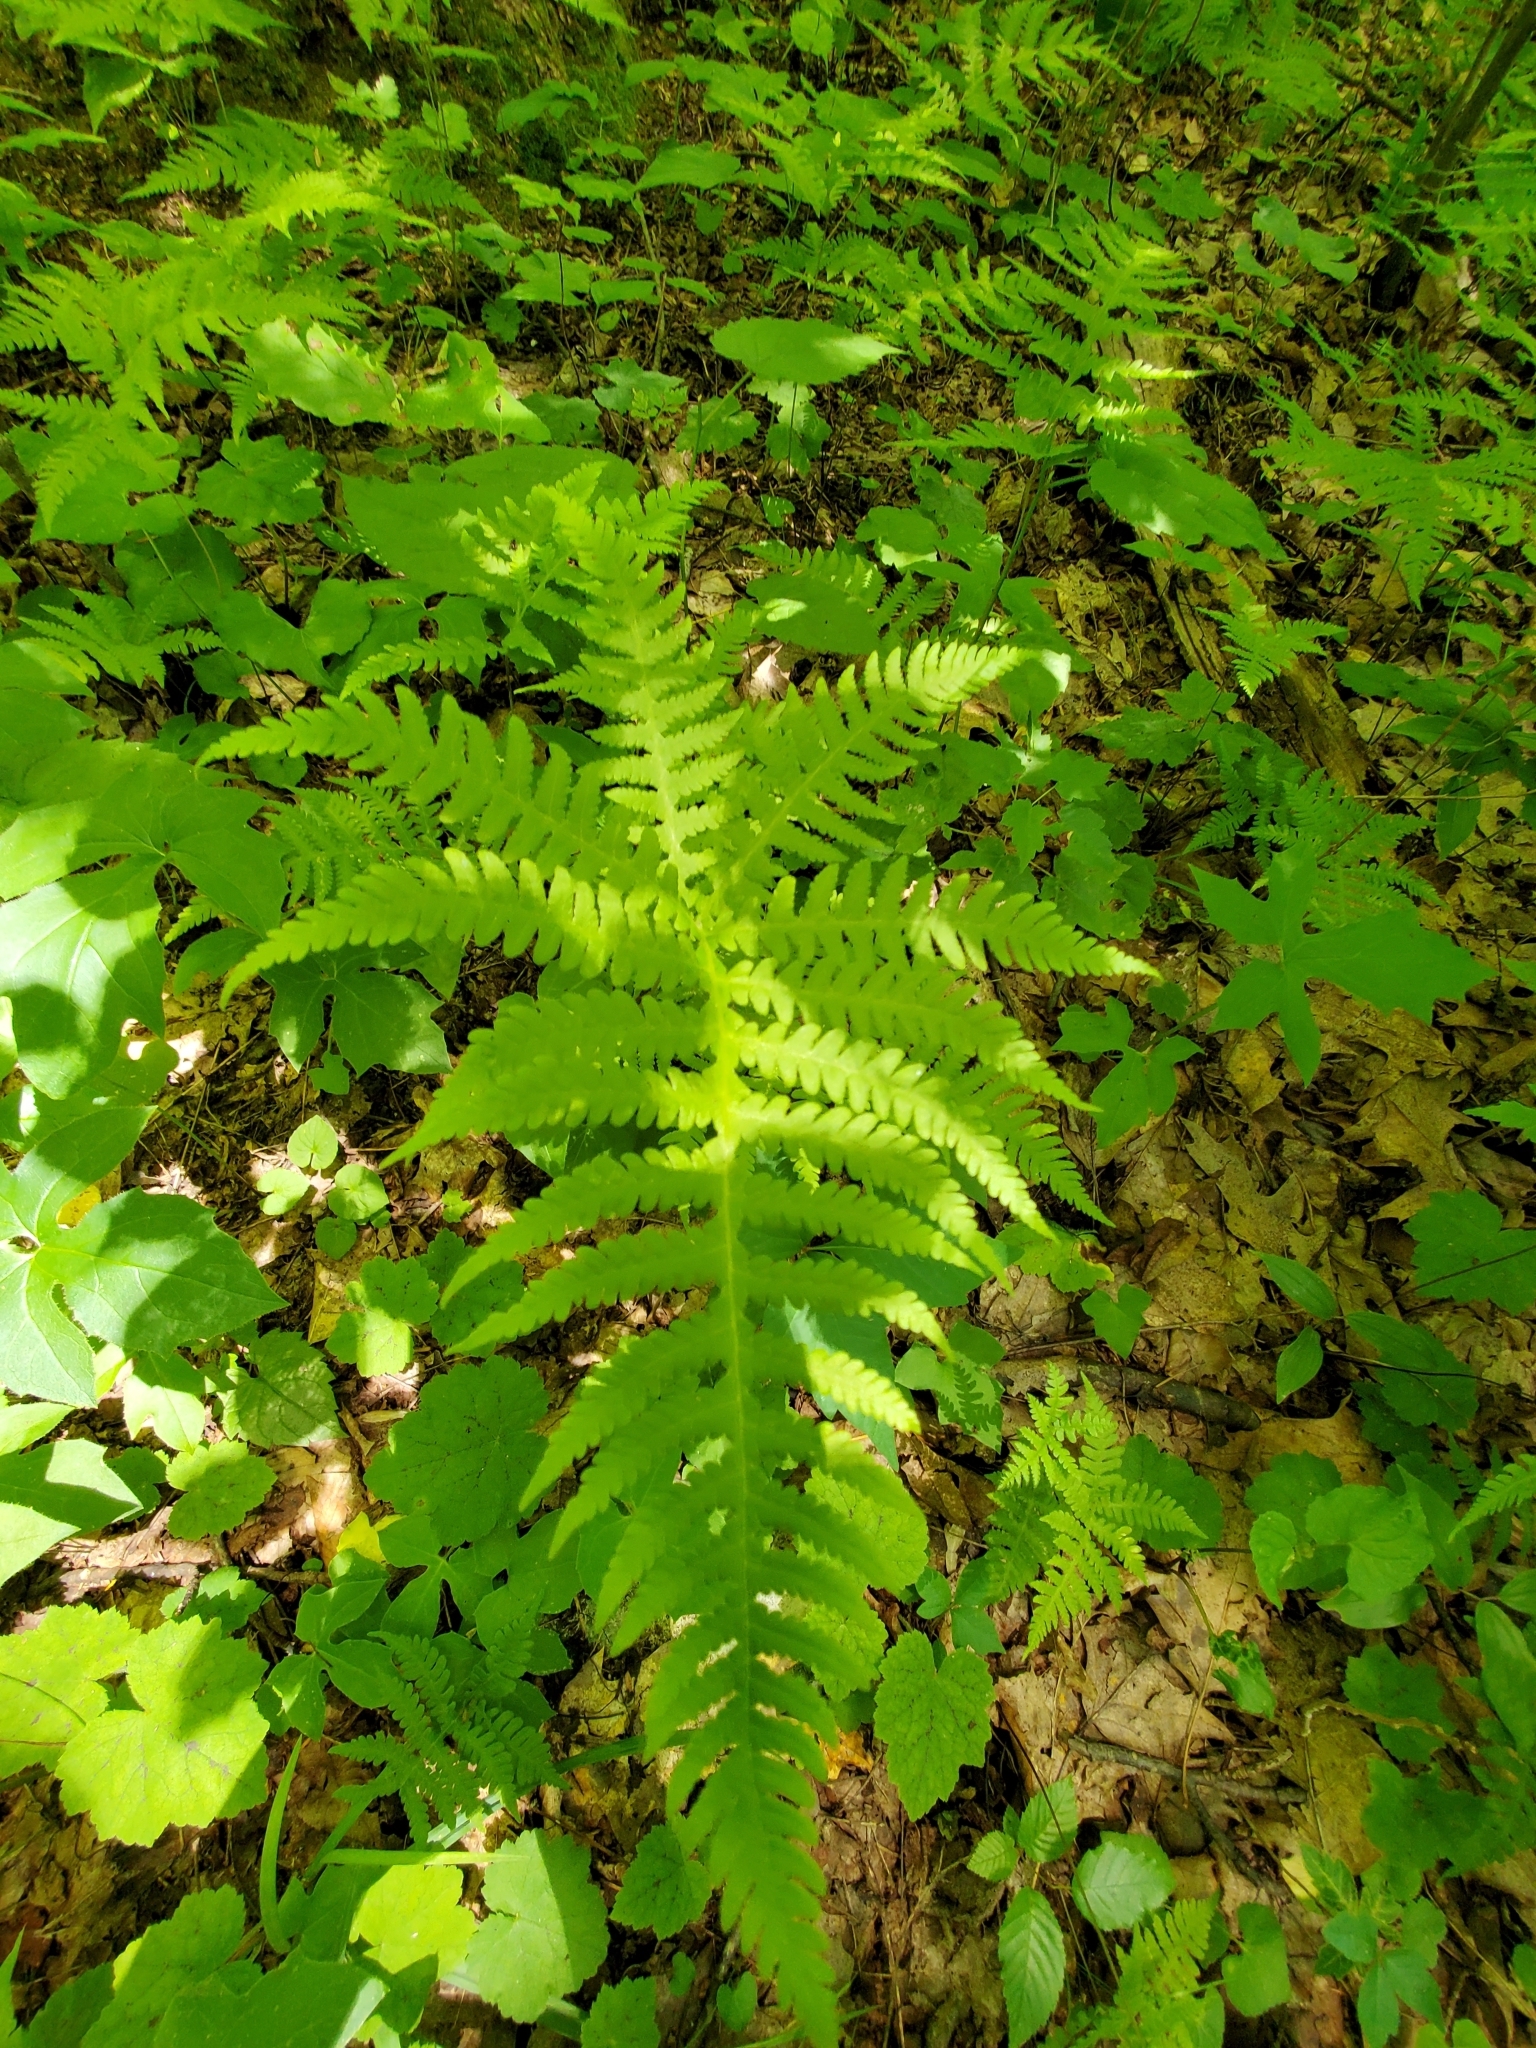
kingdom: Plantae
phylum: Tracheophyta
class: Polypodiopsida
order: Polypodiales
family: Thelypteridaceae
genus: Phegopteris
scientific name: Phegopteris hexagonoptera
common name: Broad beech fern
